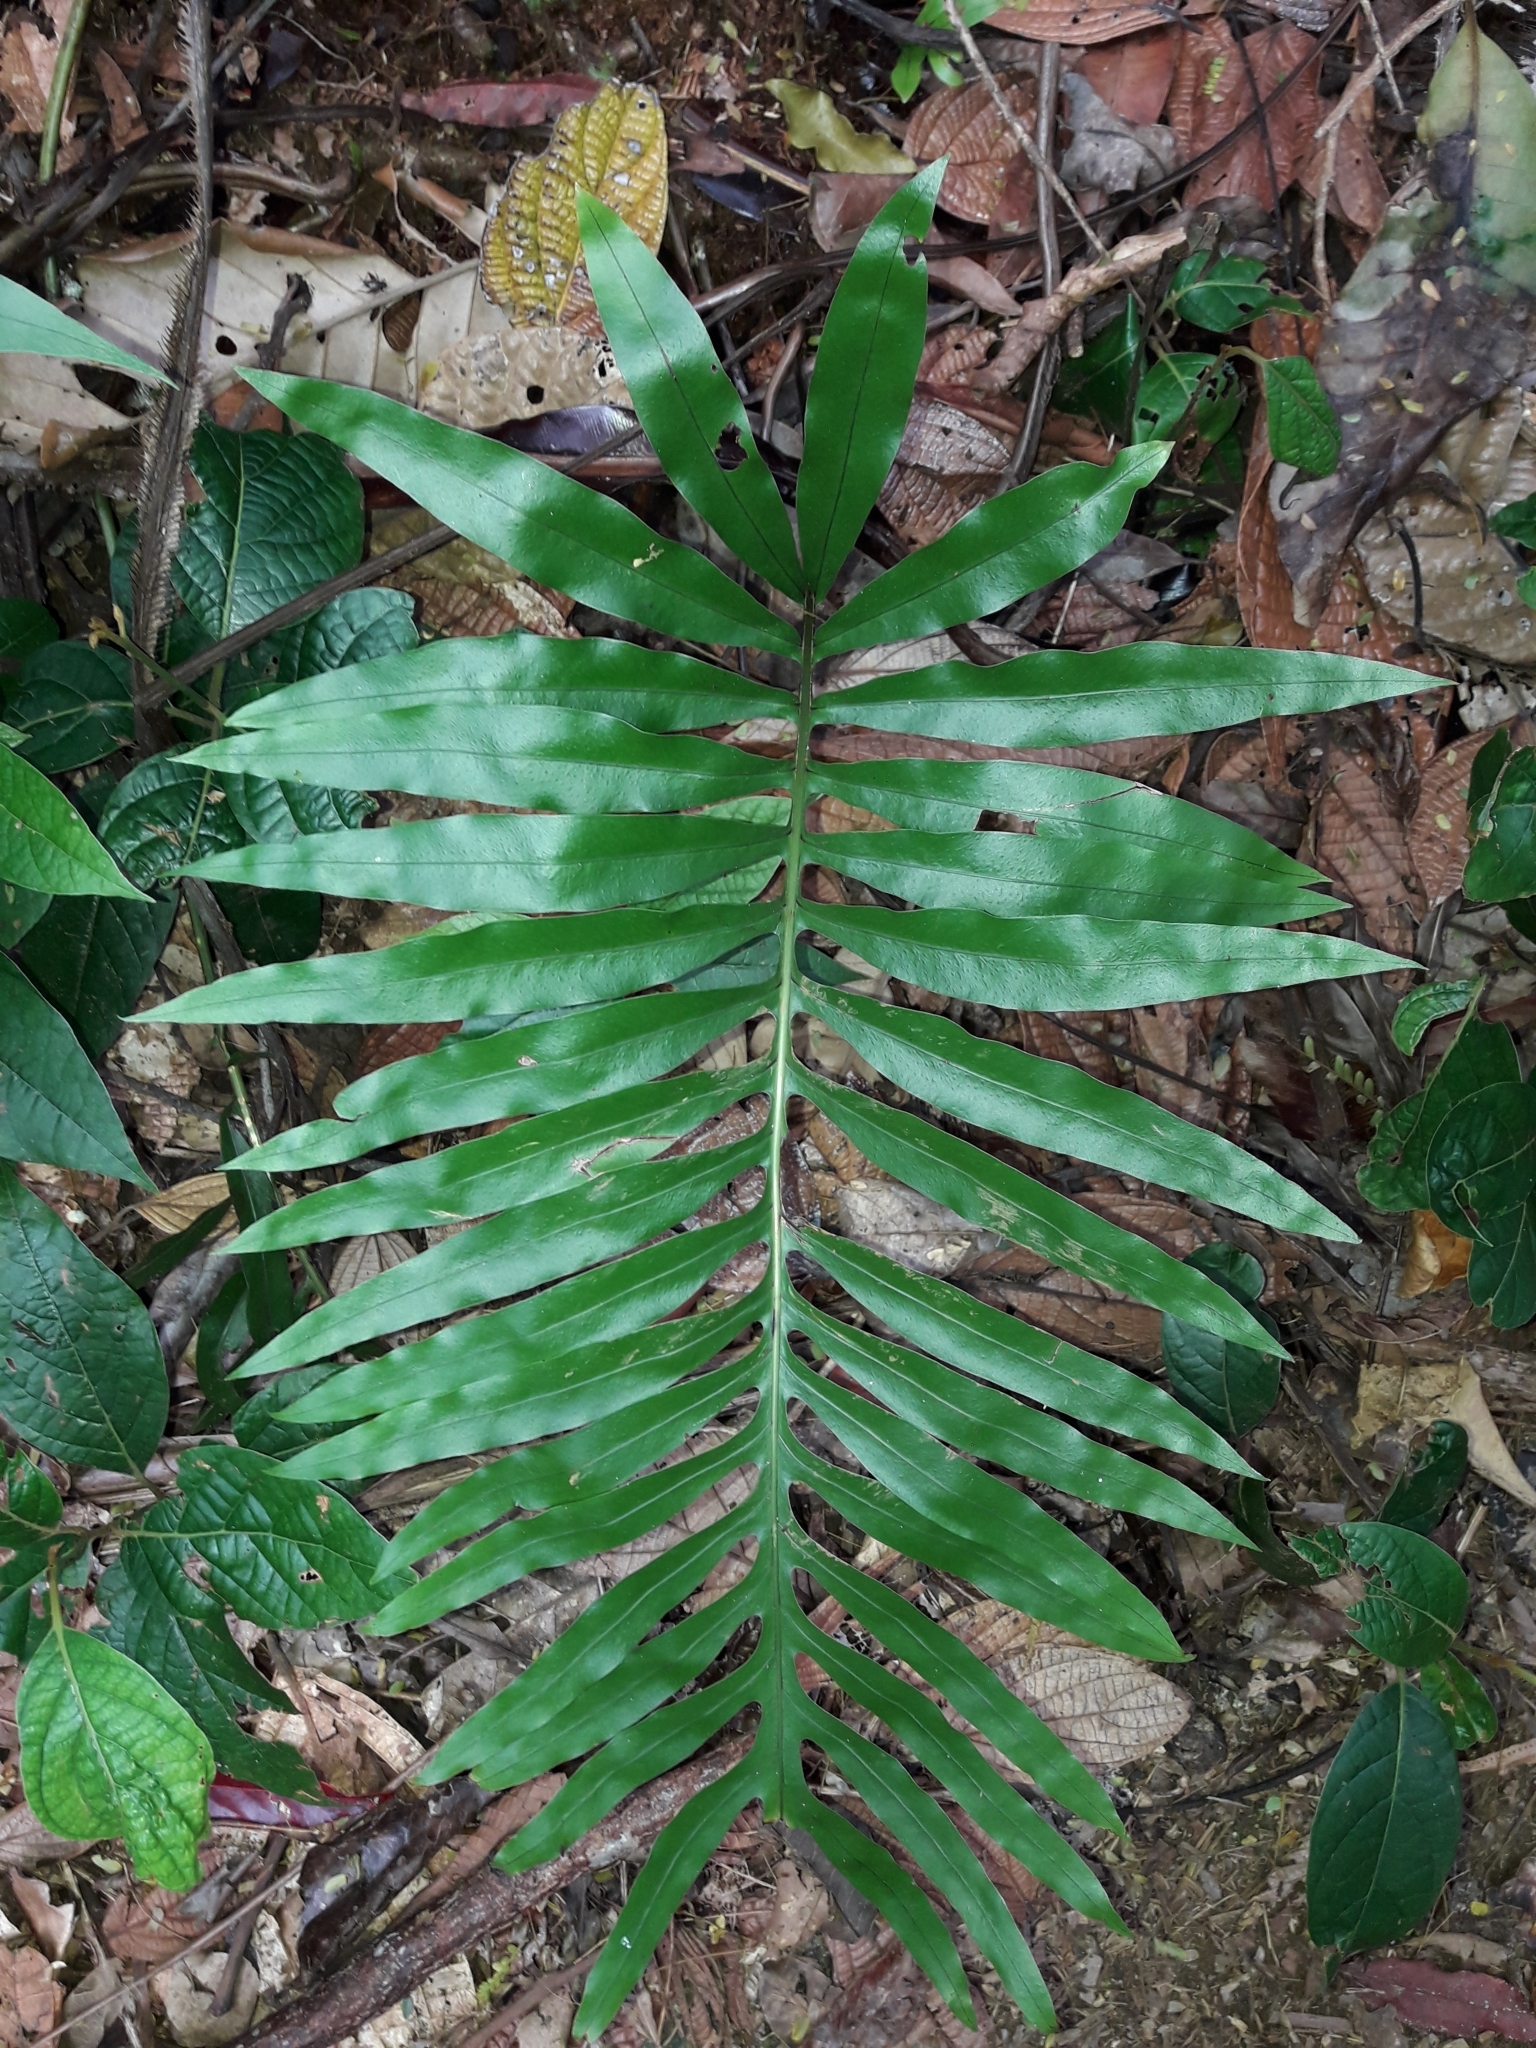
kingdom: Plantae
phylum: Tracheophyta
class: Polypodiopsida
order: Polypodiales
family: Polypodiaceae
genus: Lecanopteris
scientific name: Lecanopteris vieillardii
